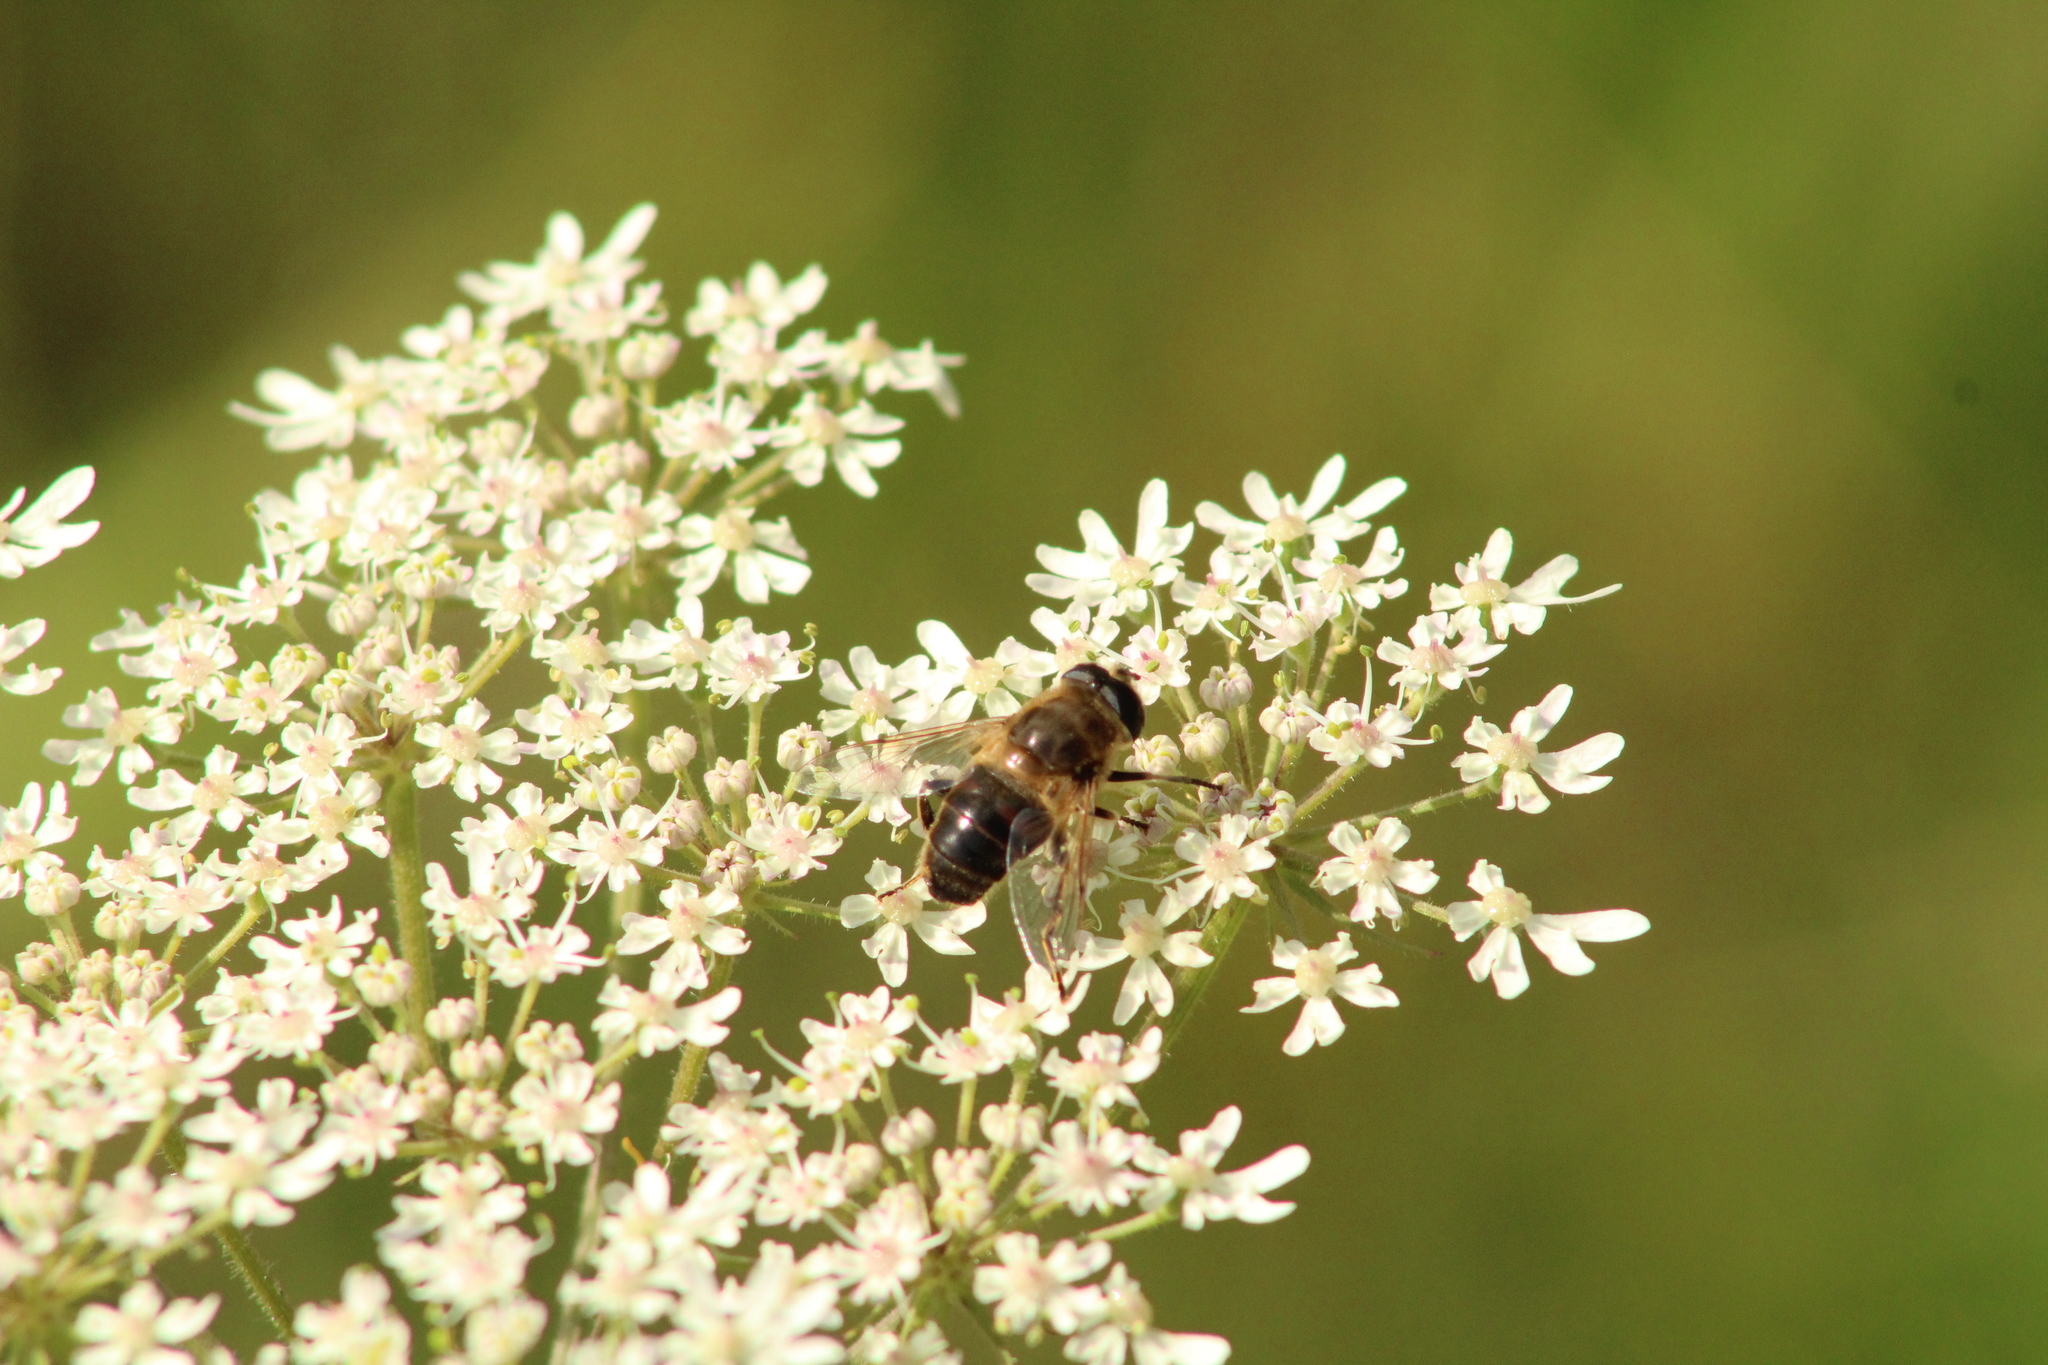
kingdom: Animalia
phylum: Arthropoda
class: Insecta
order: Diptera
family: Syrphidae
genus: Eristalis
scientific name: Eristalis tenax
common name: Drone fly
